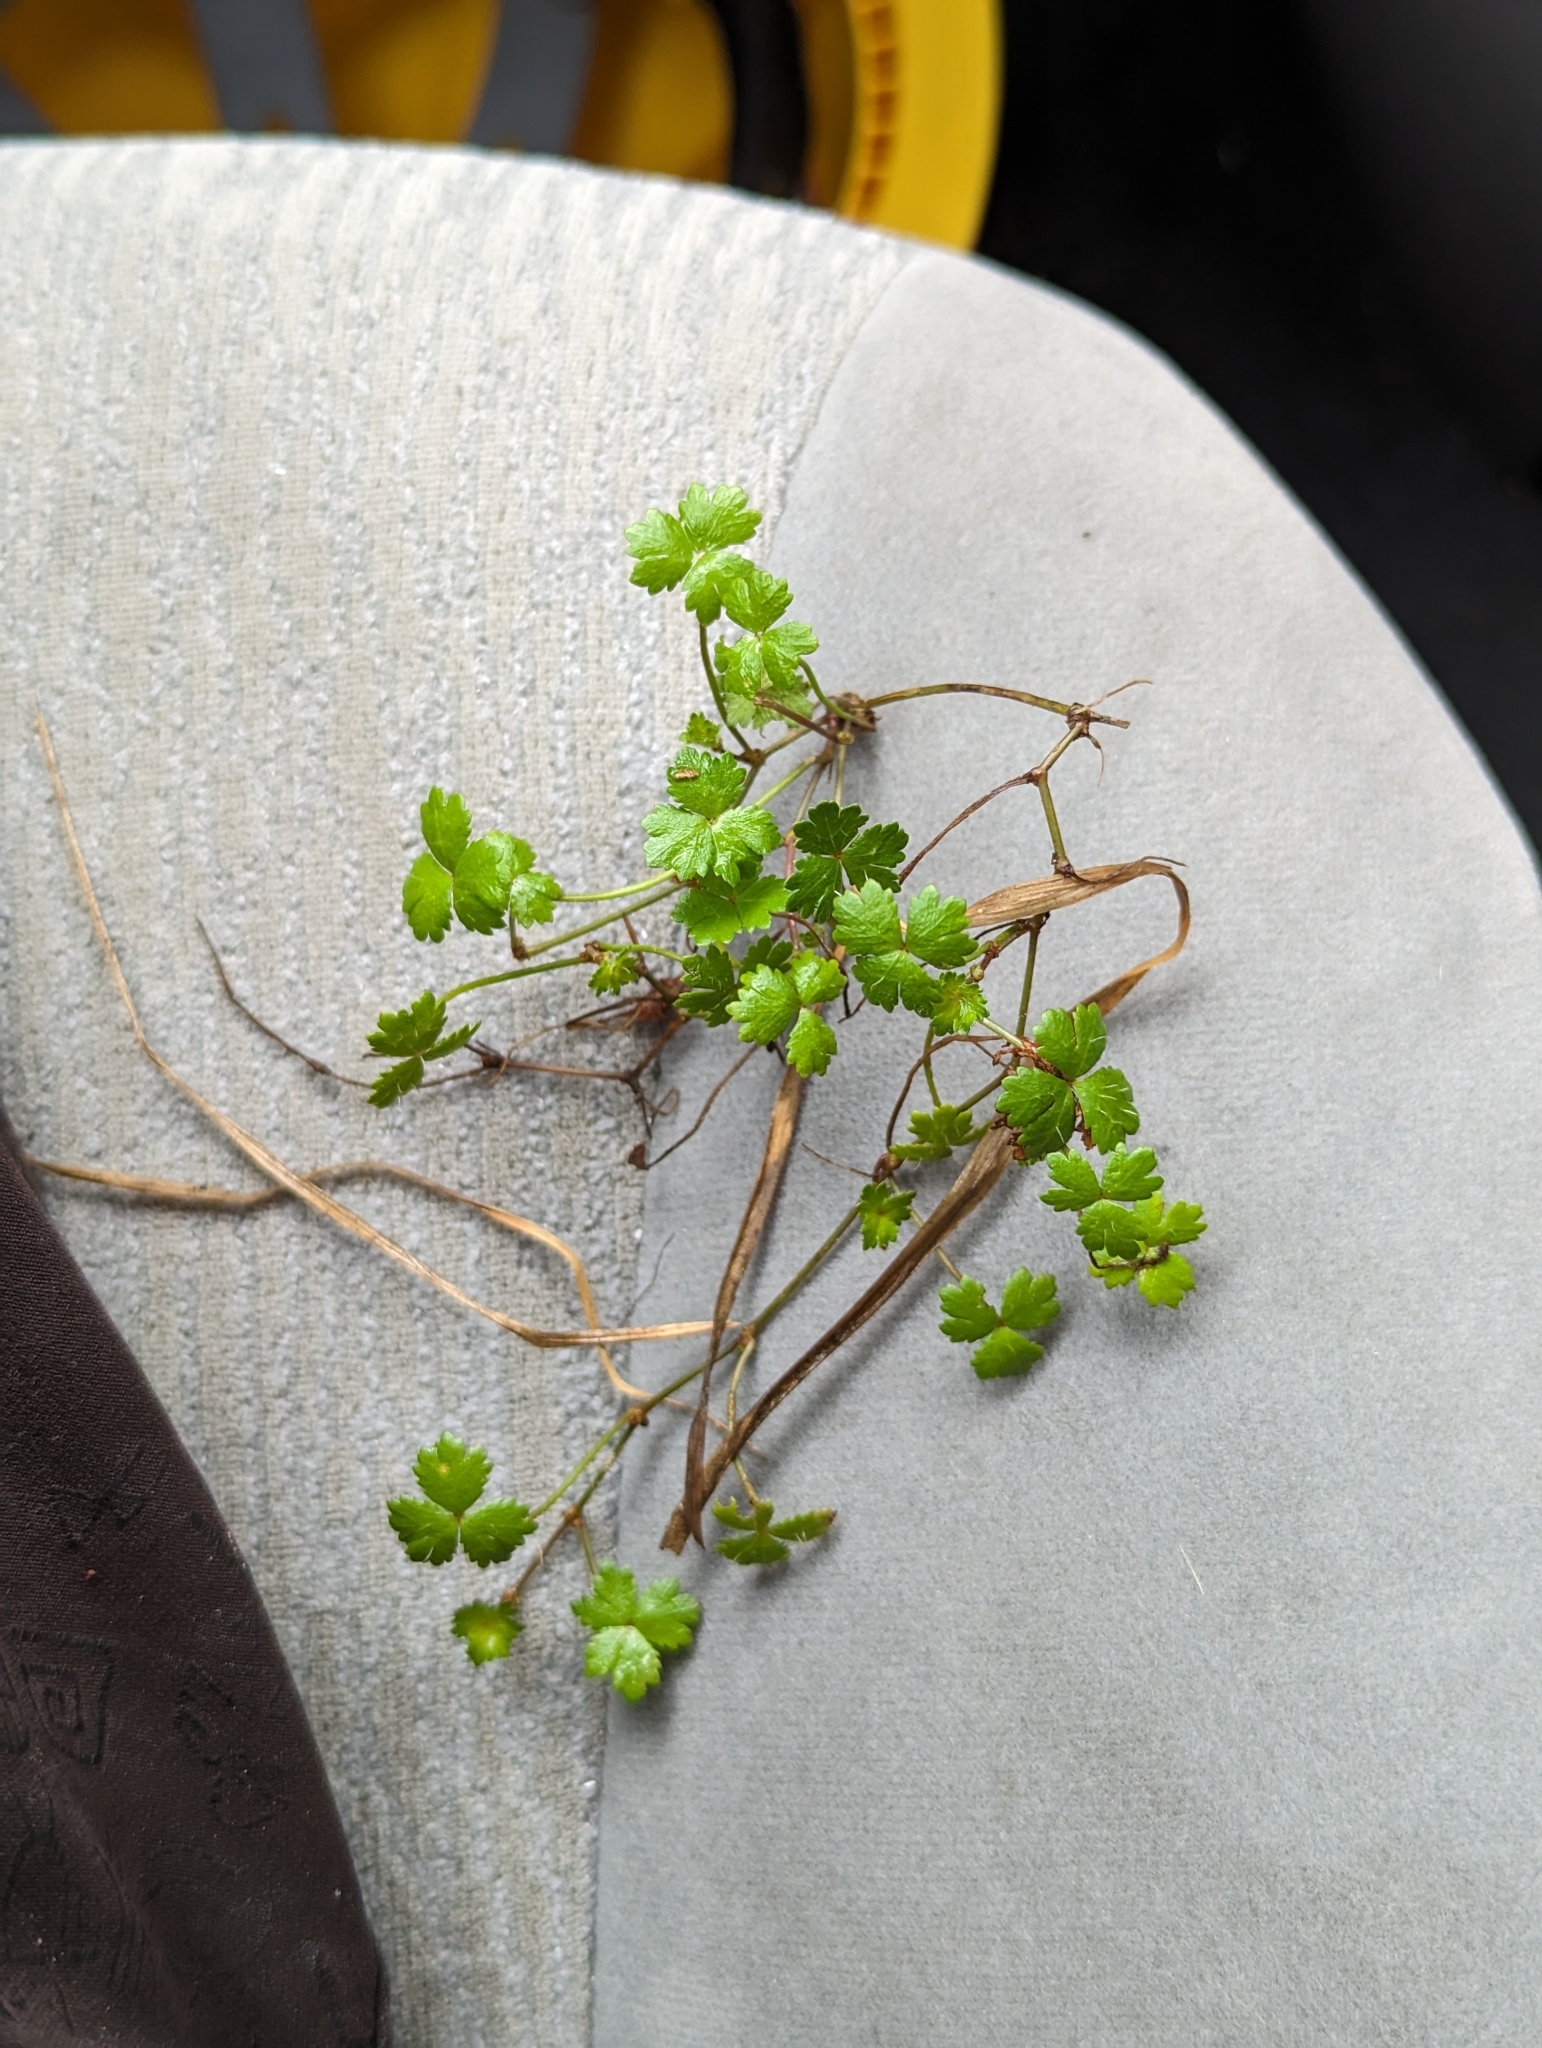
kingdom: Plantae
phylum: Tracheophyta
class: Magnoliopsida
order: Apiales
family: Araliaceae
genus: Hydrocotyle
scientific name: Hydrocotyle tripartita
